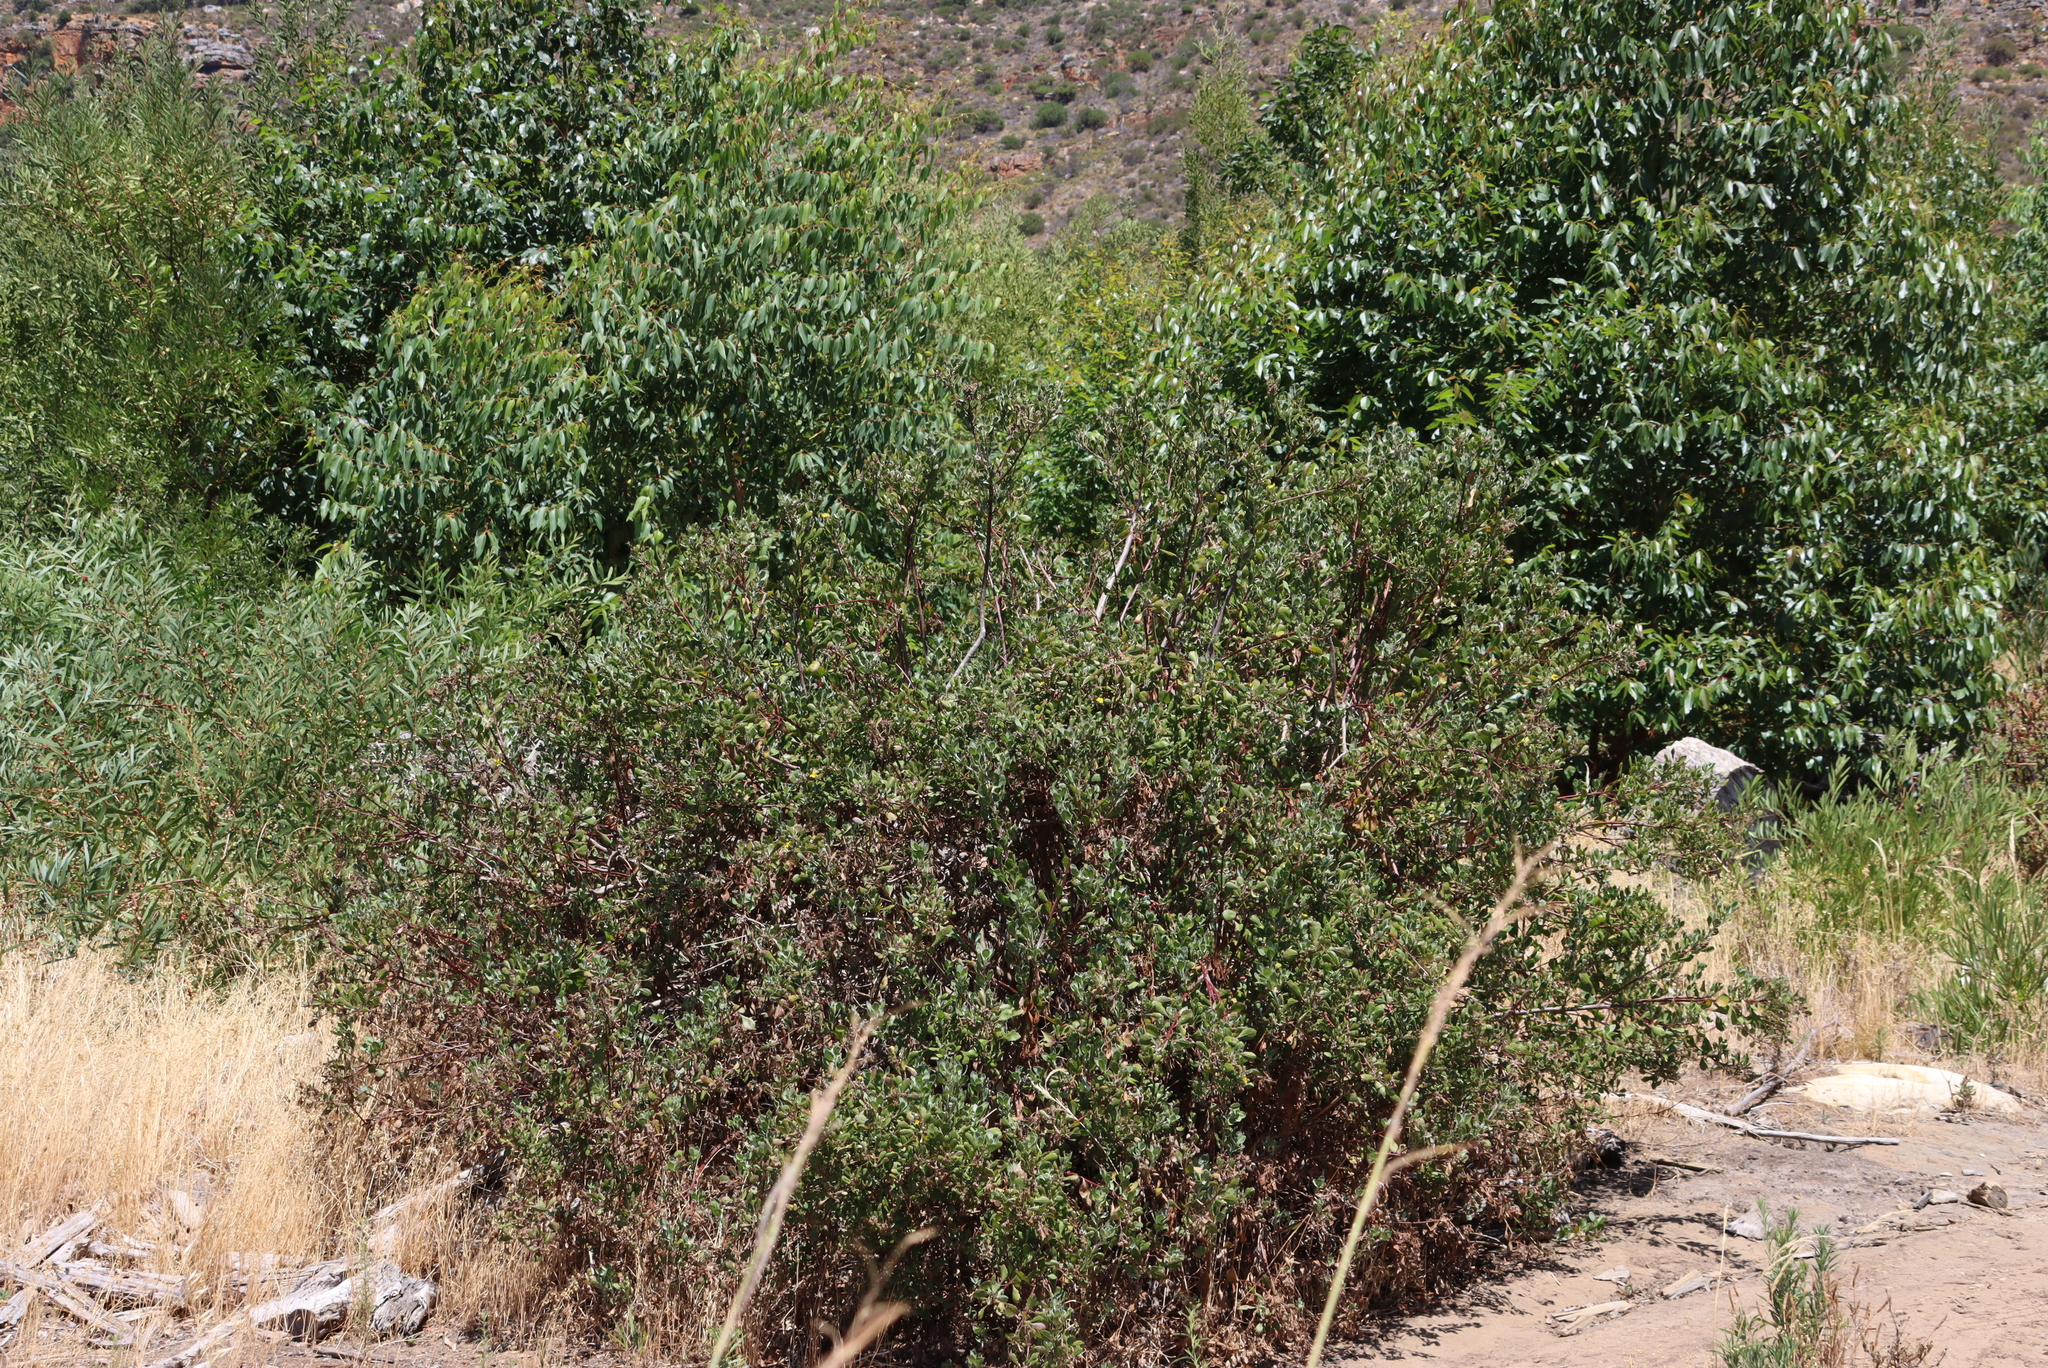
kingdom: Plantae
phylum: Tracheophyta
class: Magnoliopsida
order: Asterales
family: Asteraceae
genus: Osteospermum
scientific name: Osteospermum moniliferum
